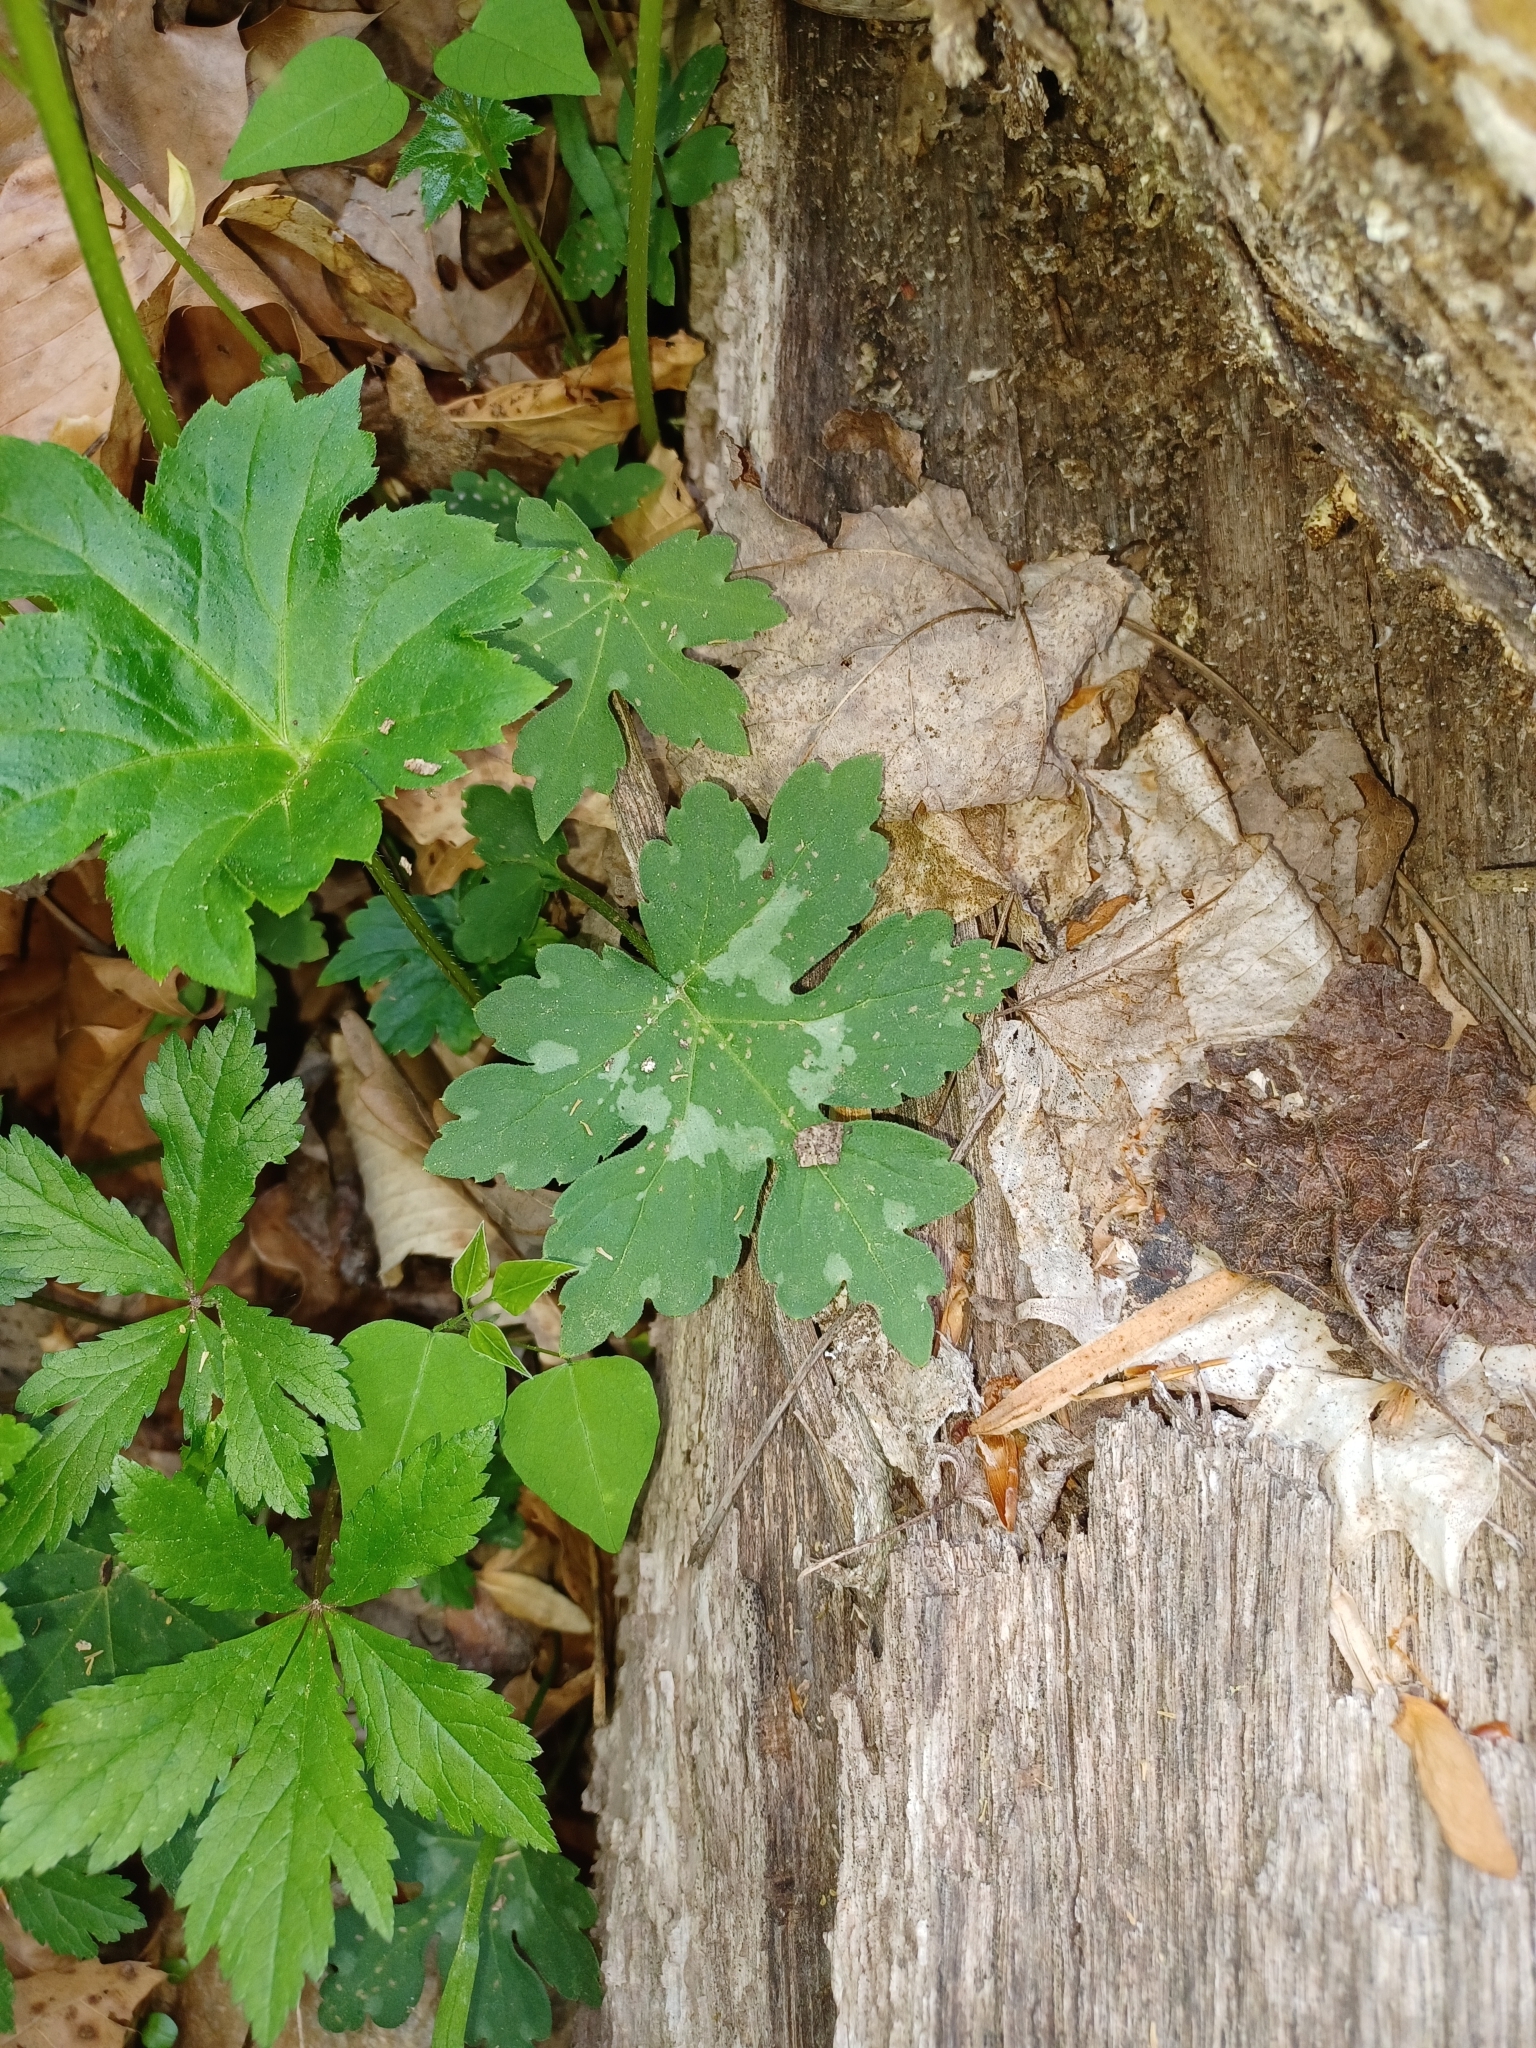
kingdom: Plantae
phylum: Tracheophyta
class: Magnoliopsida
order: Boraginales
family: Hydrophyllaceae
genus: Hydrophyllum
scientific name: Hydrophyllum canadense
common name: Canada waterleaf
